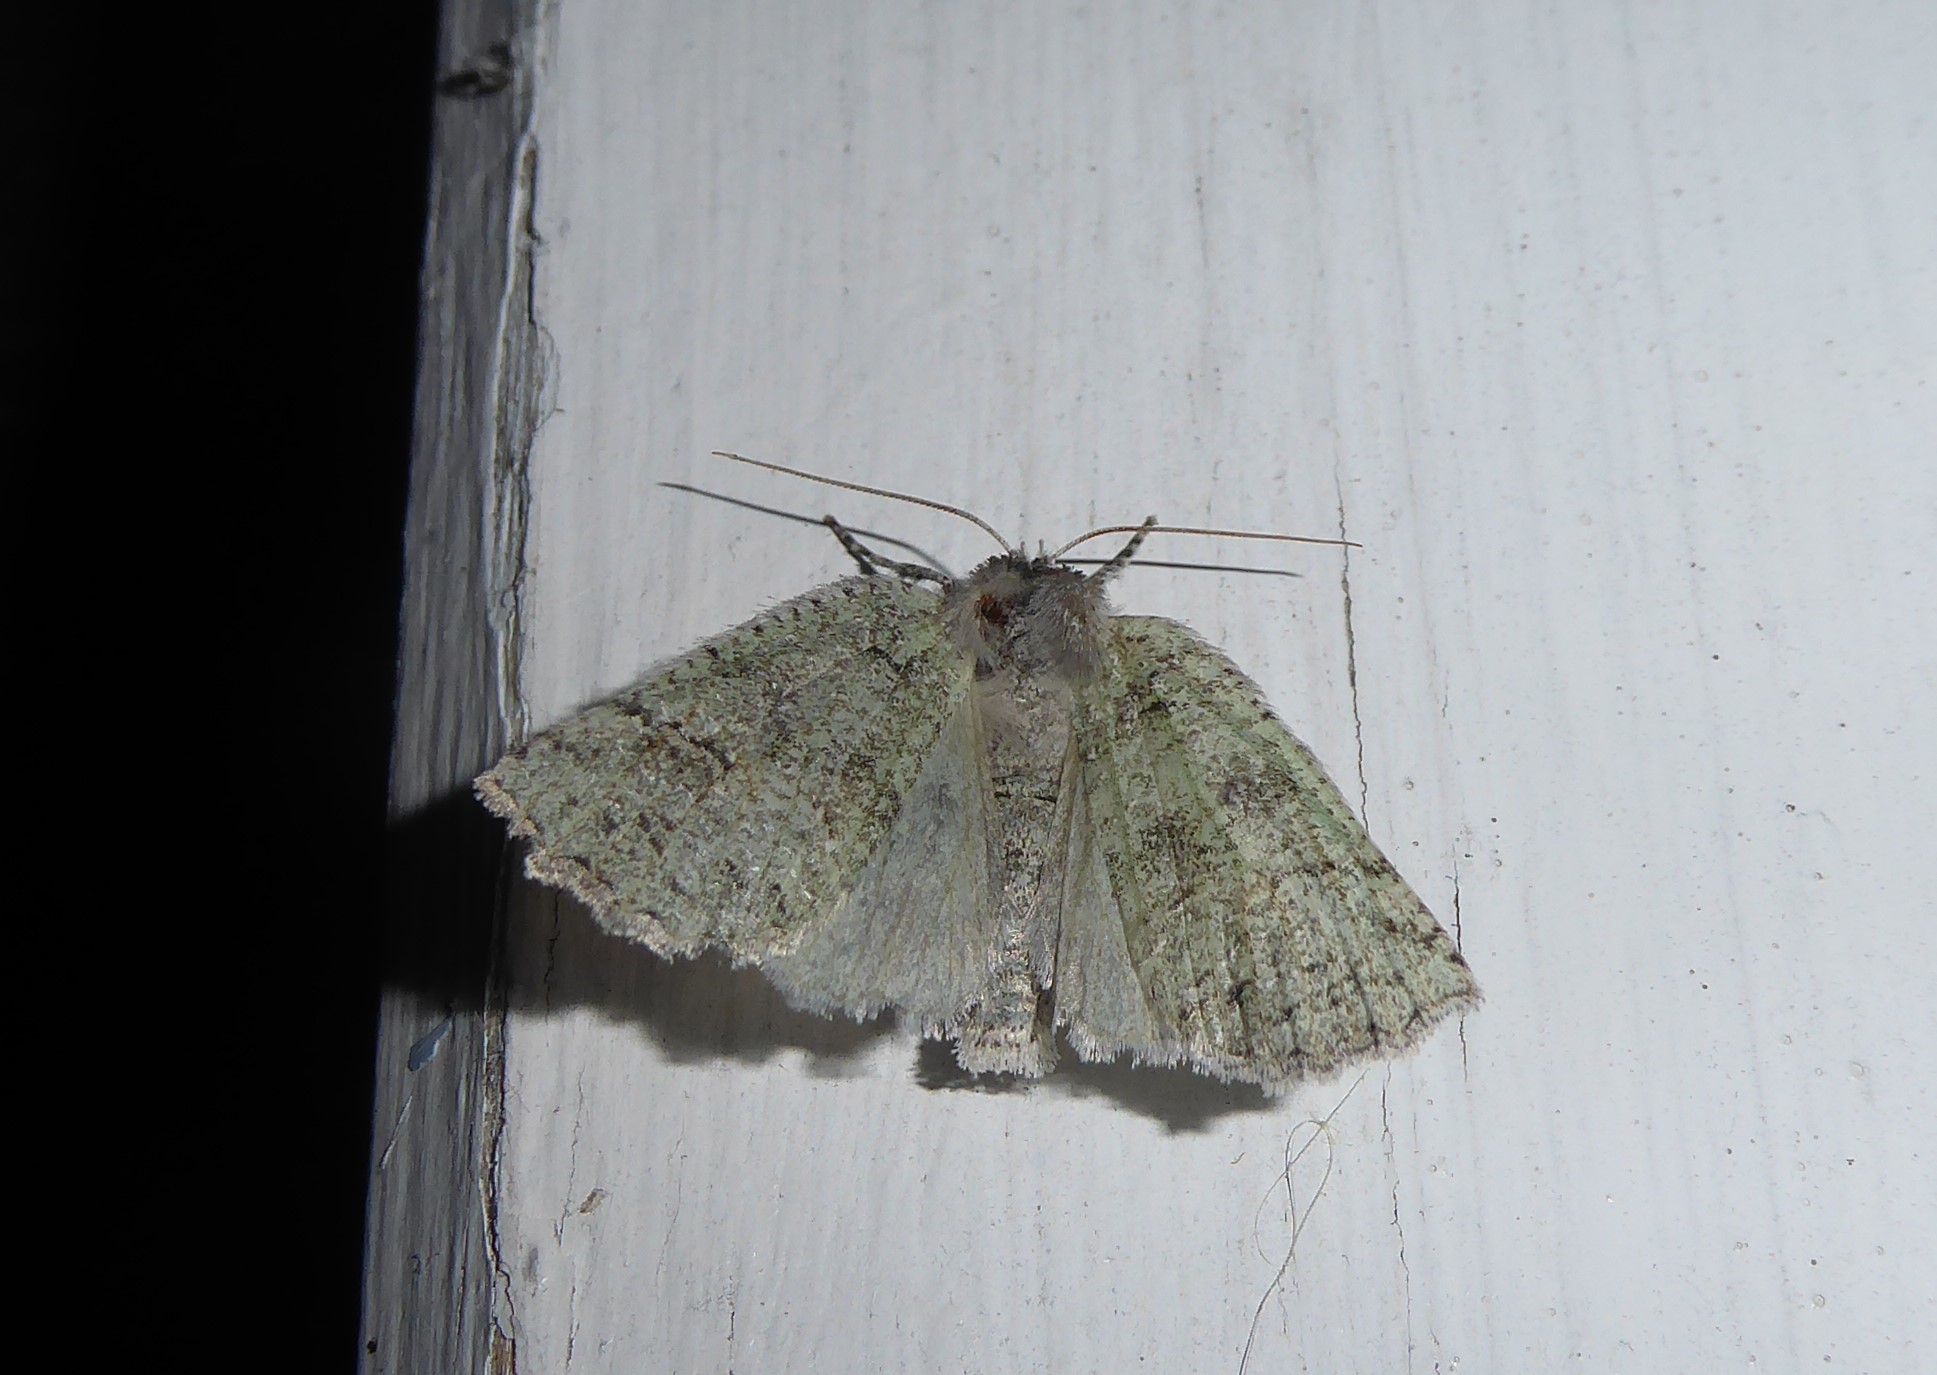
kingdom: Animalia
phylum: Arthropoda
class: Insecta
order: Lepidoptera
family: Geometridae
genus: Declana
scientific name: Declana floccosa
